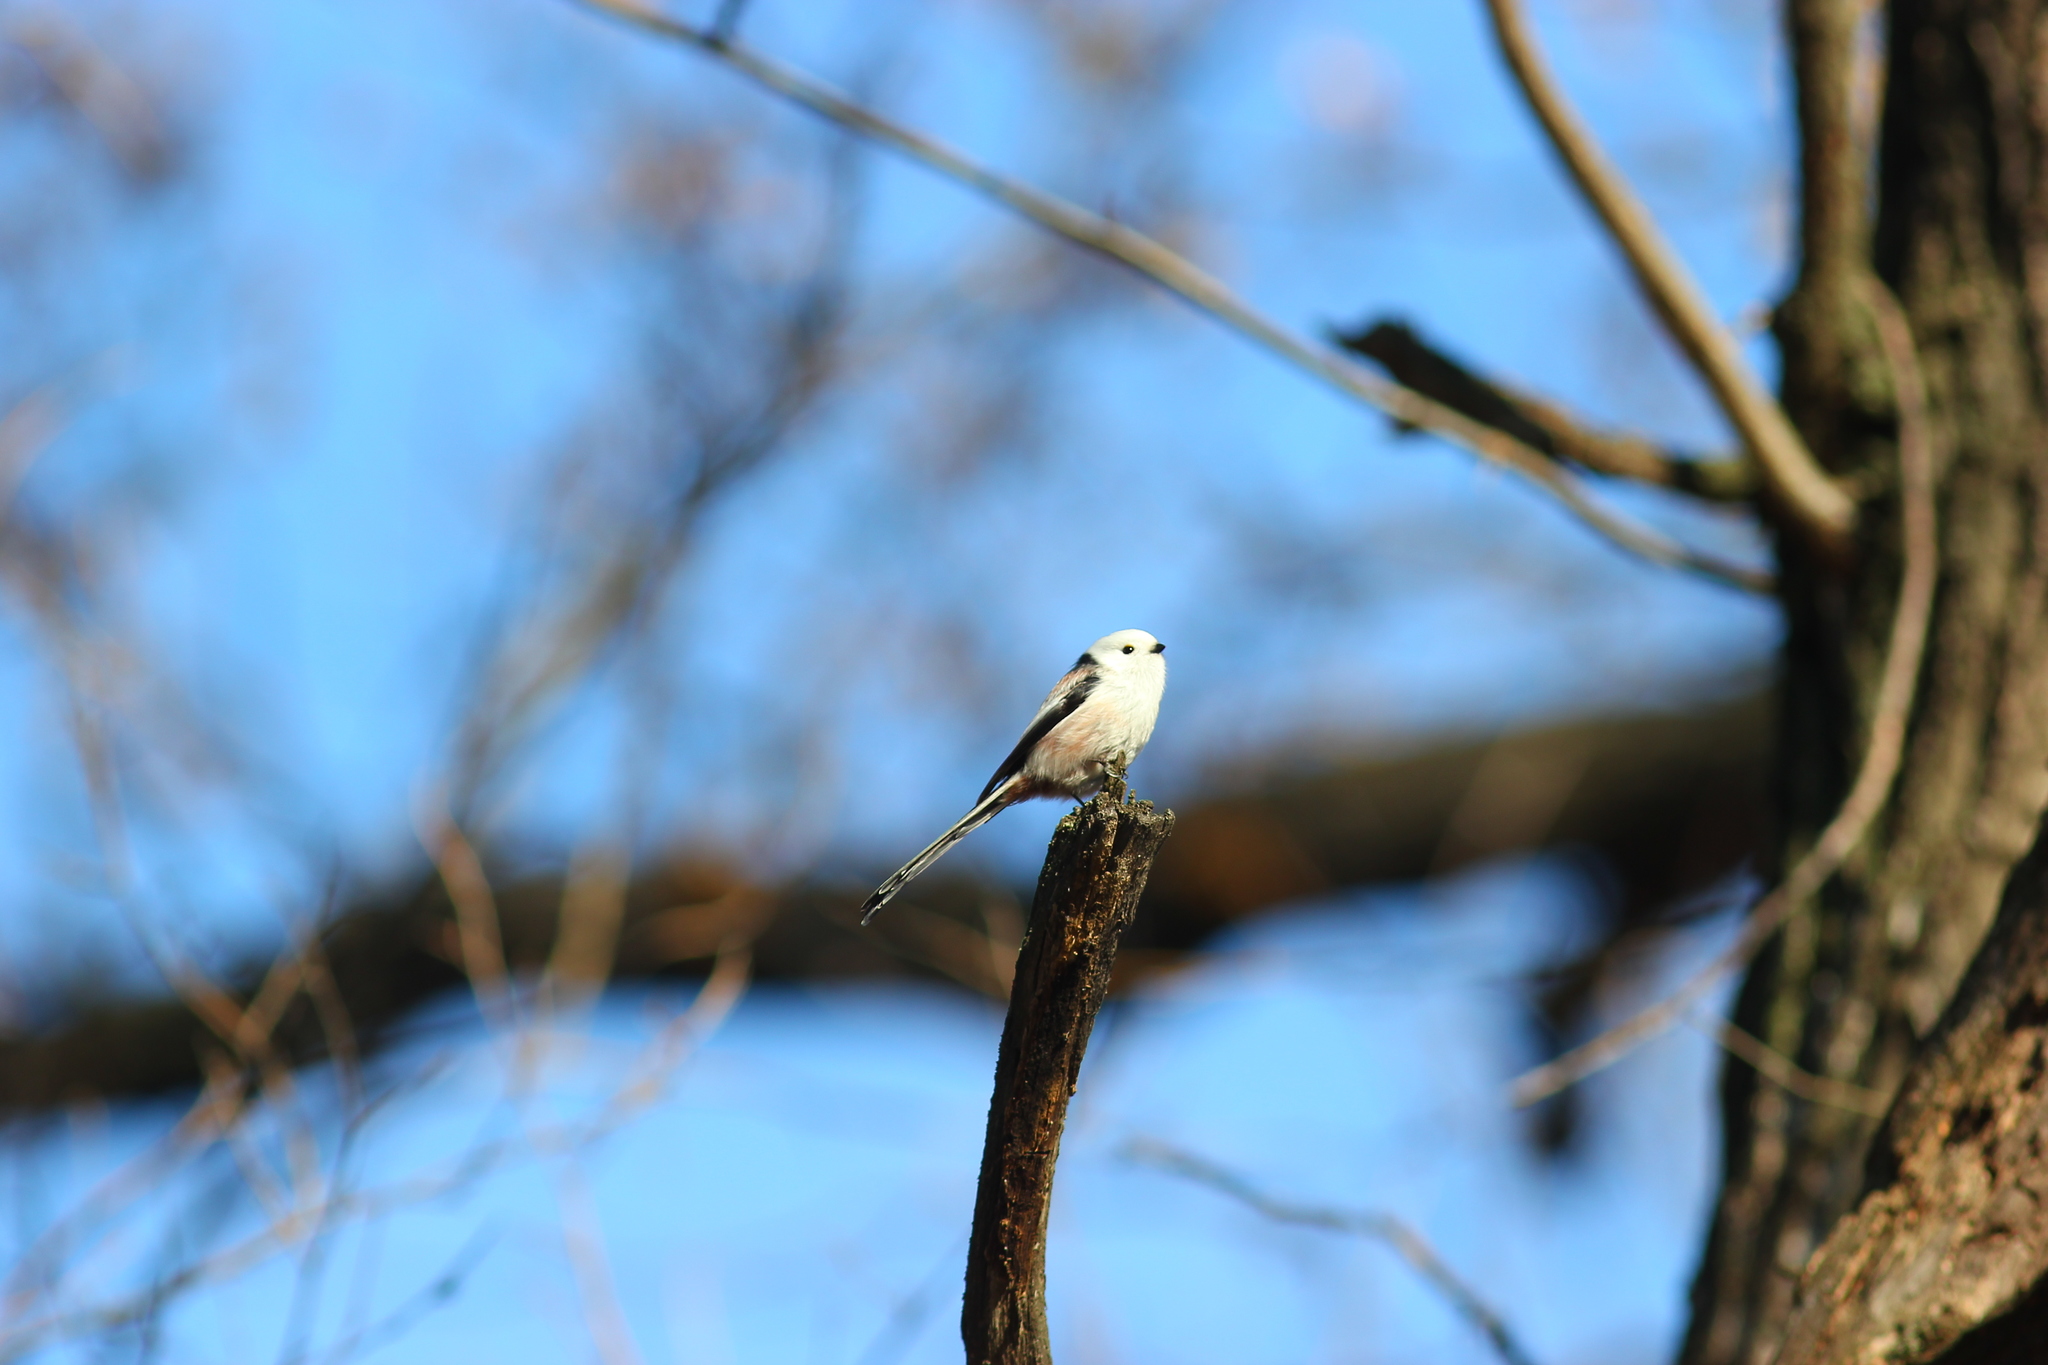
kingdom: Animalia
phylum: Chordata
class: Aves
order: Passeriformes
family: Aegithalidae
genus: Aegithalos
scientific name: Aegithalos caudatus
